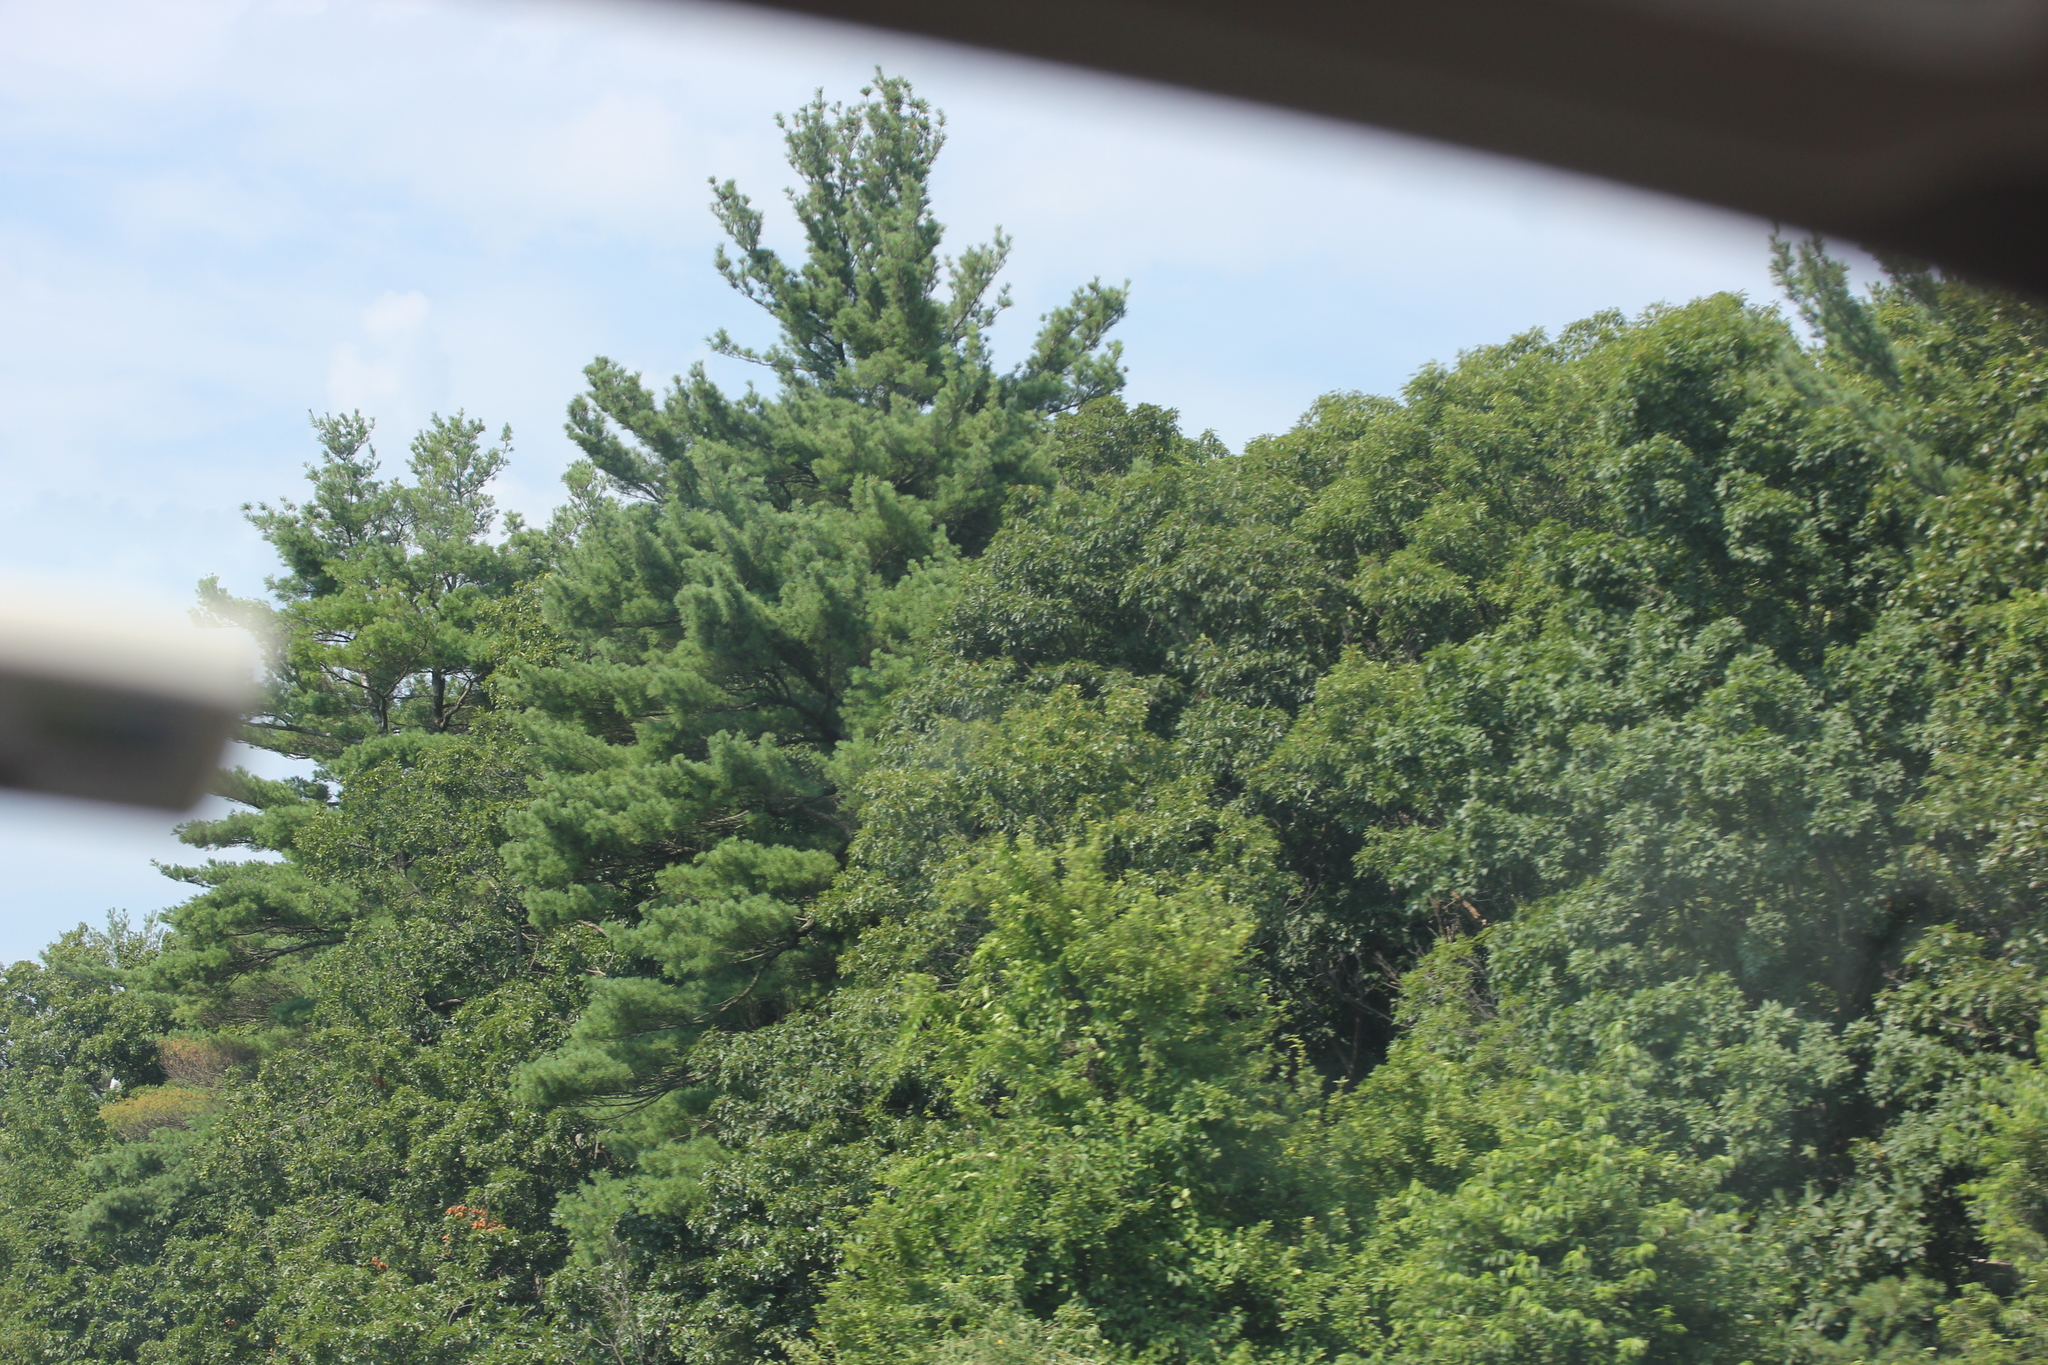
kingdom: Plantae
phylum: Tracheophyta
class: Pinopsida
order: Pinales
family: Pinaceae
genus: Pinus
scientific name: Pinus strobus
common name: Weymouth pine
